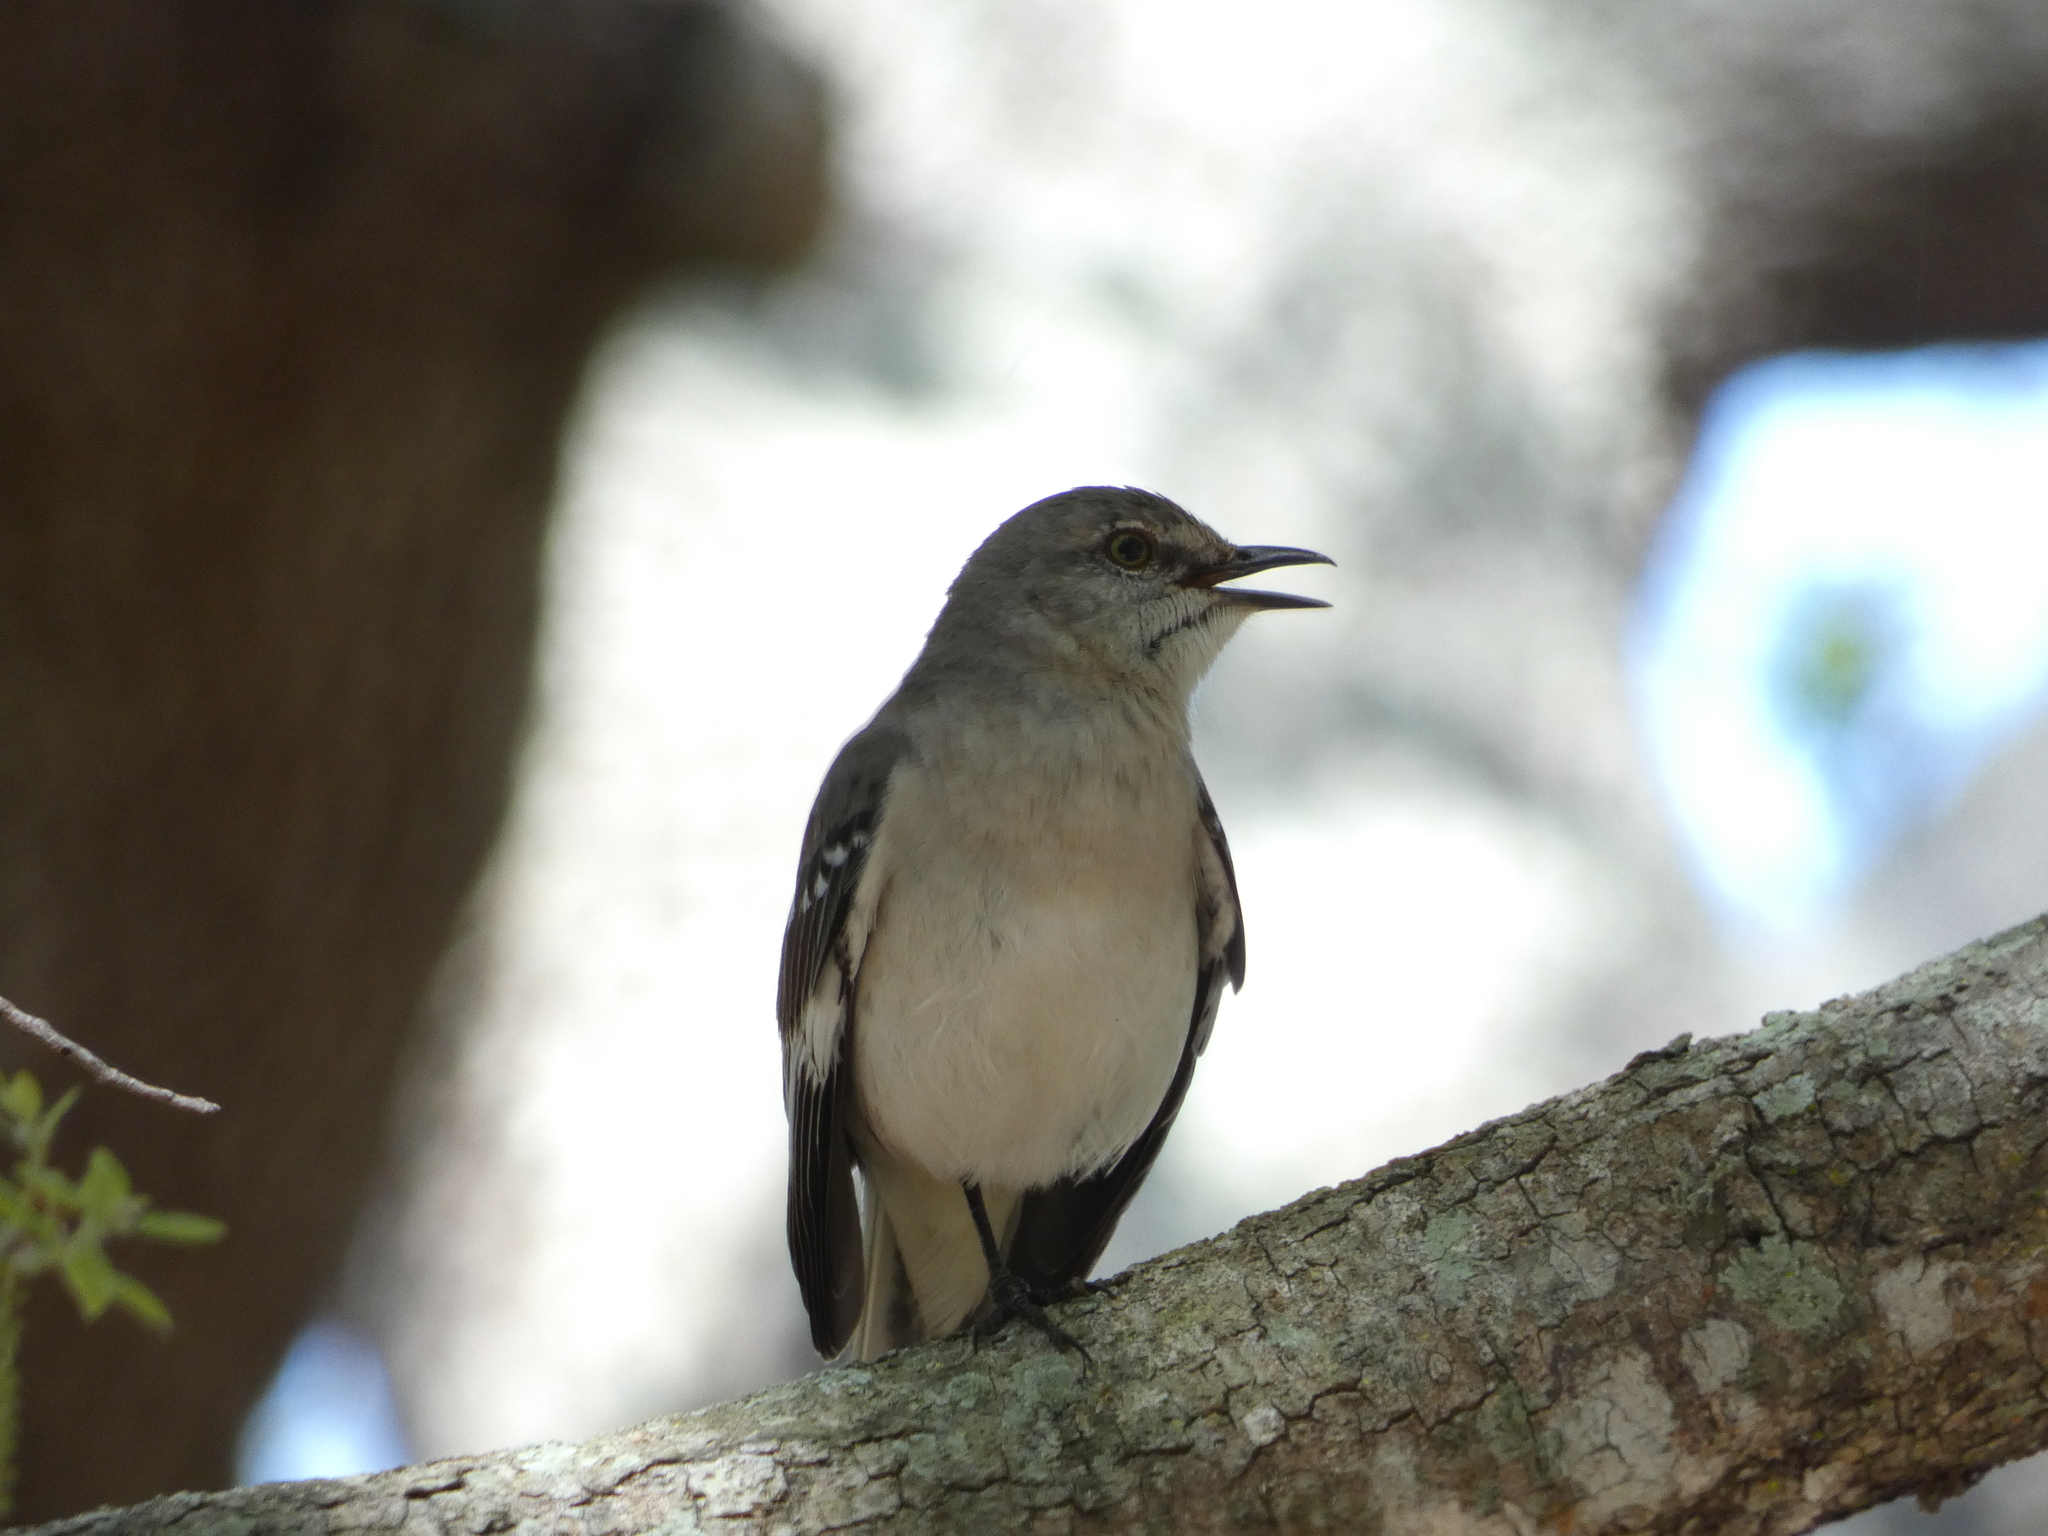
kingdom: Animalia
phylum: Chordata
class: Aves
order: Passeriformes
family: Mimidae
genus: Mimus
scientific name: Mimus polyglottos
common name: Northern mockingbird
